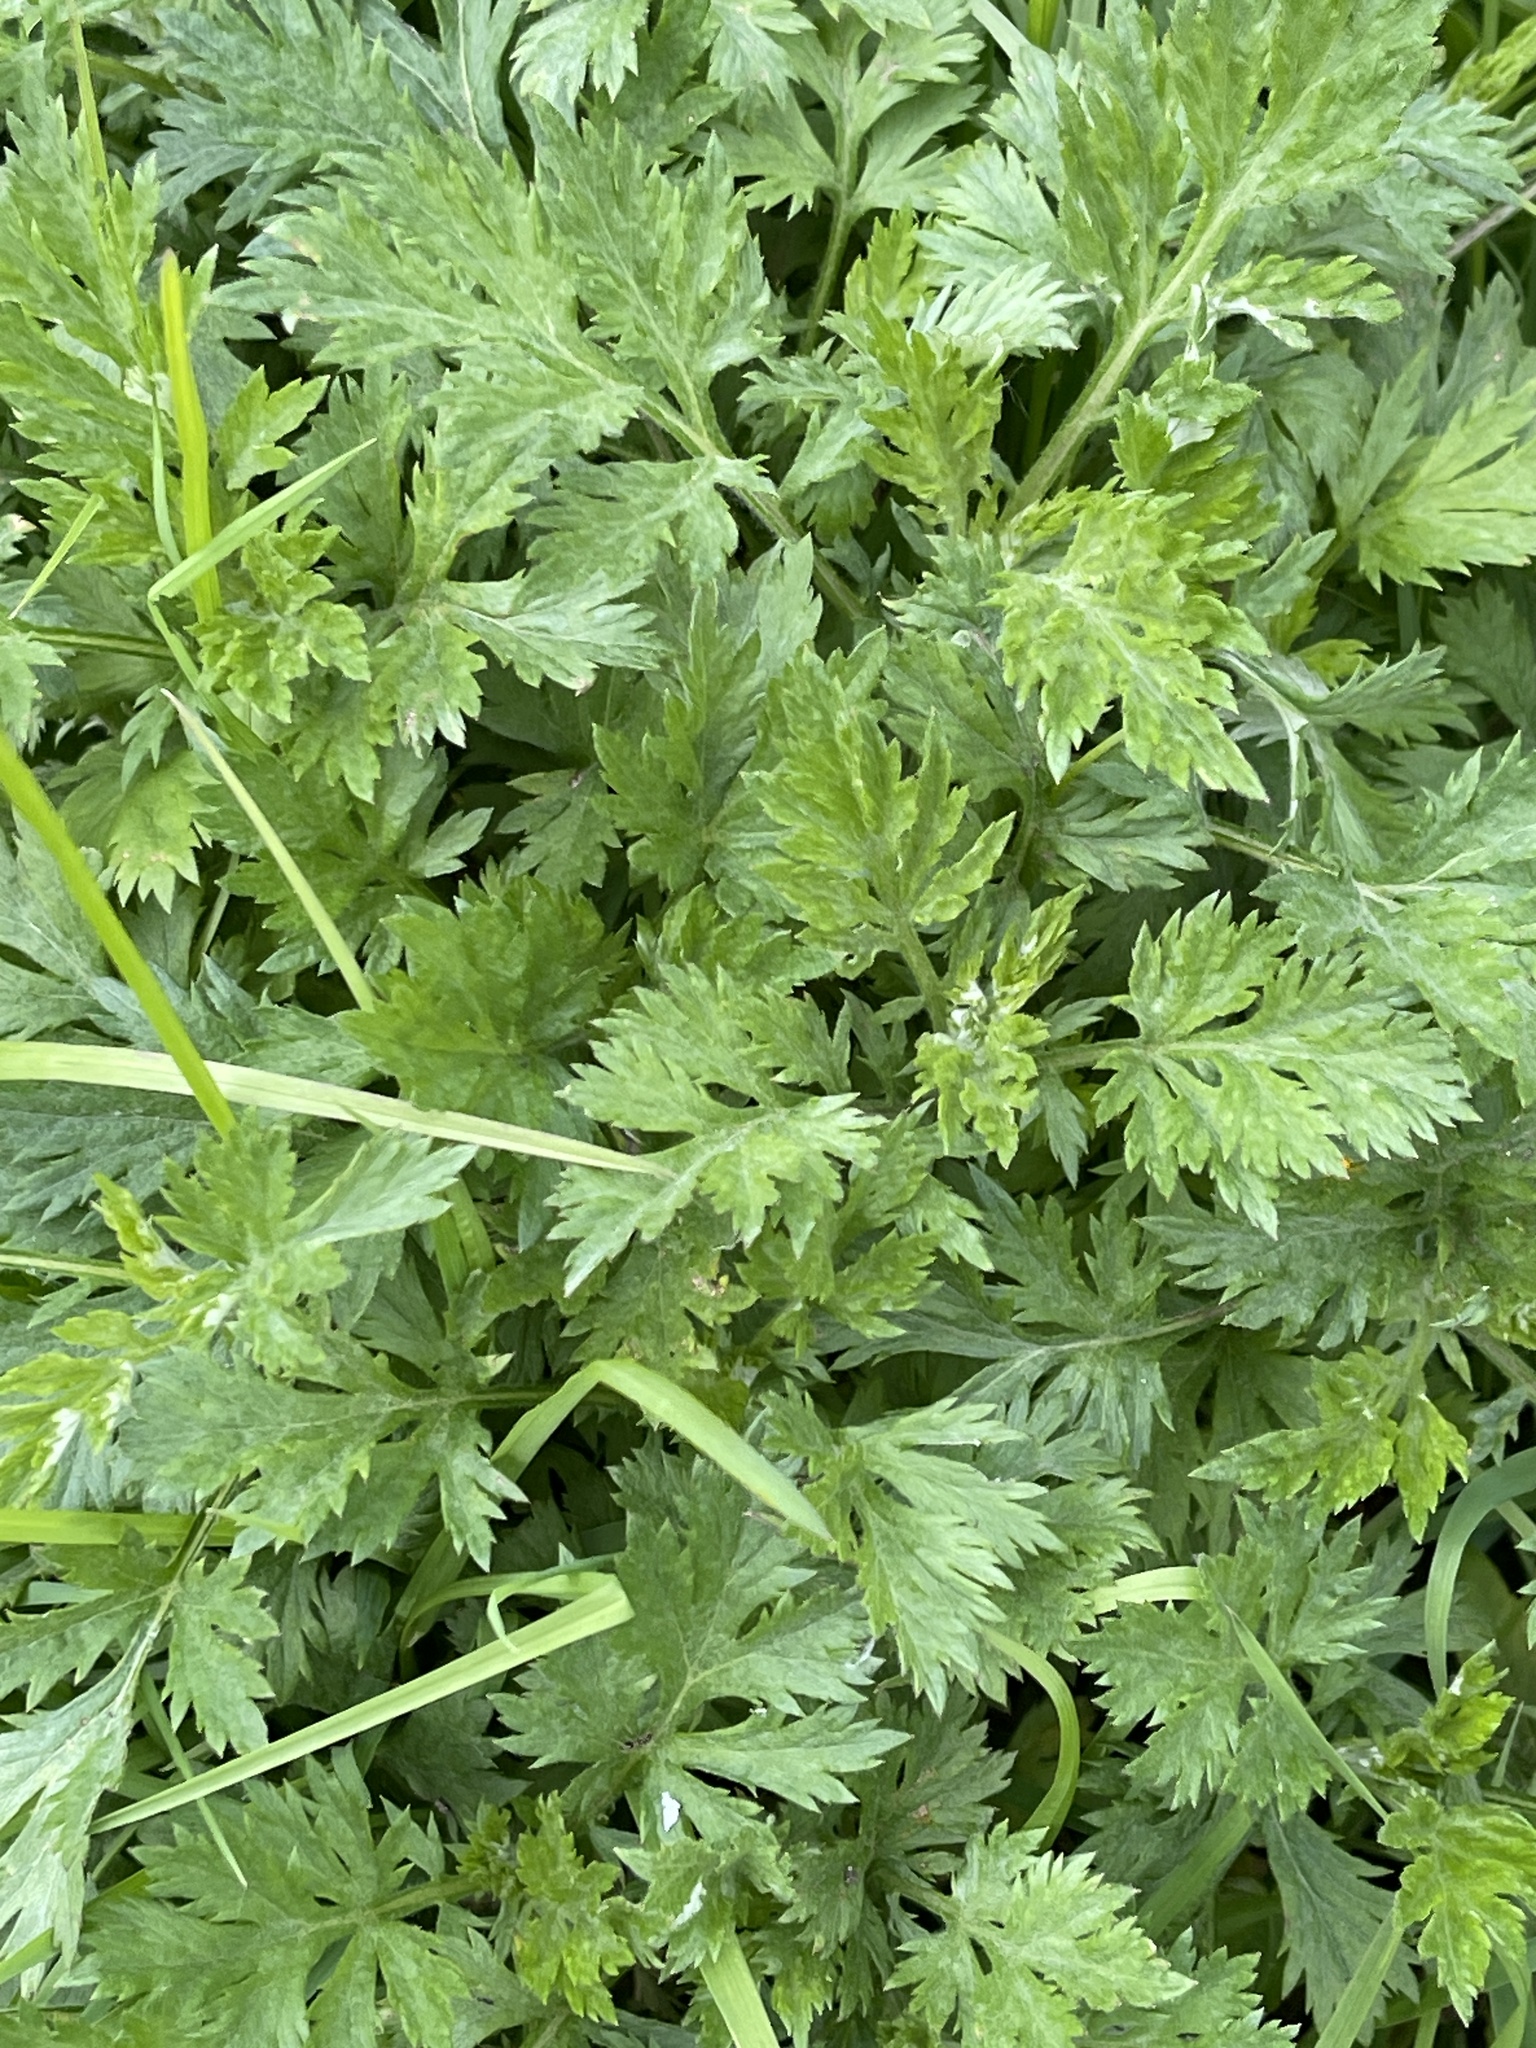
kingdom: Plantae
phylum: Tracheophyta
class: Magnoliopsida
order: Asterales
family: Asteraceae
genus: Artemisia
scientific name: Artemisia vulgaris
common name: Mugwort
